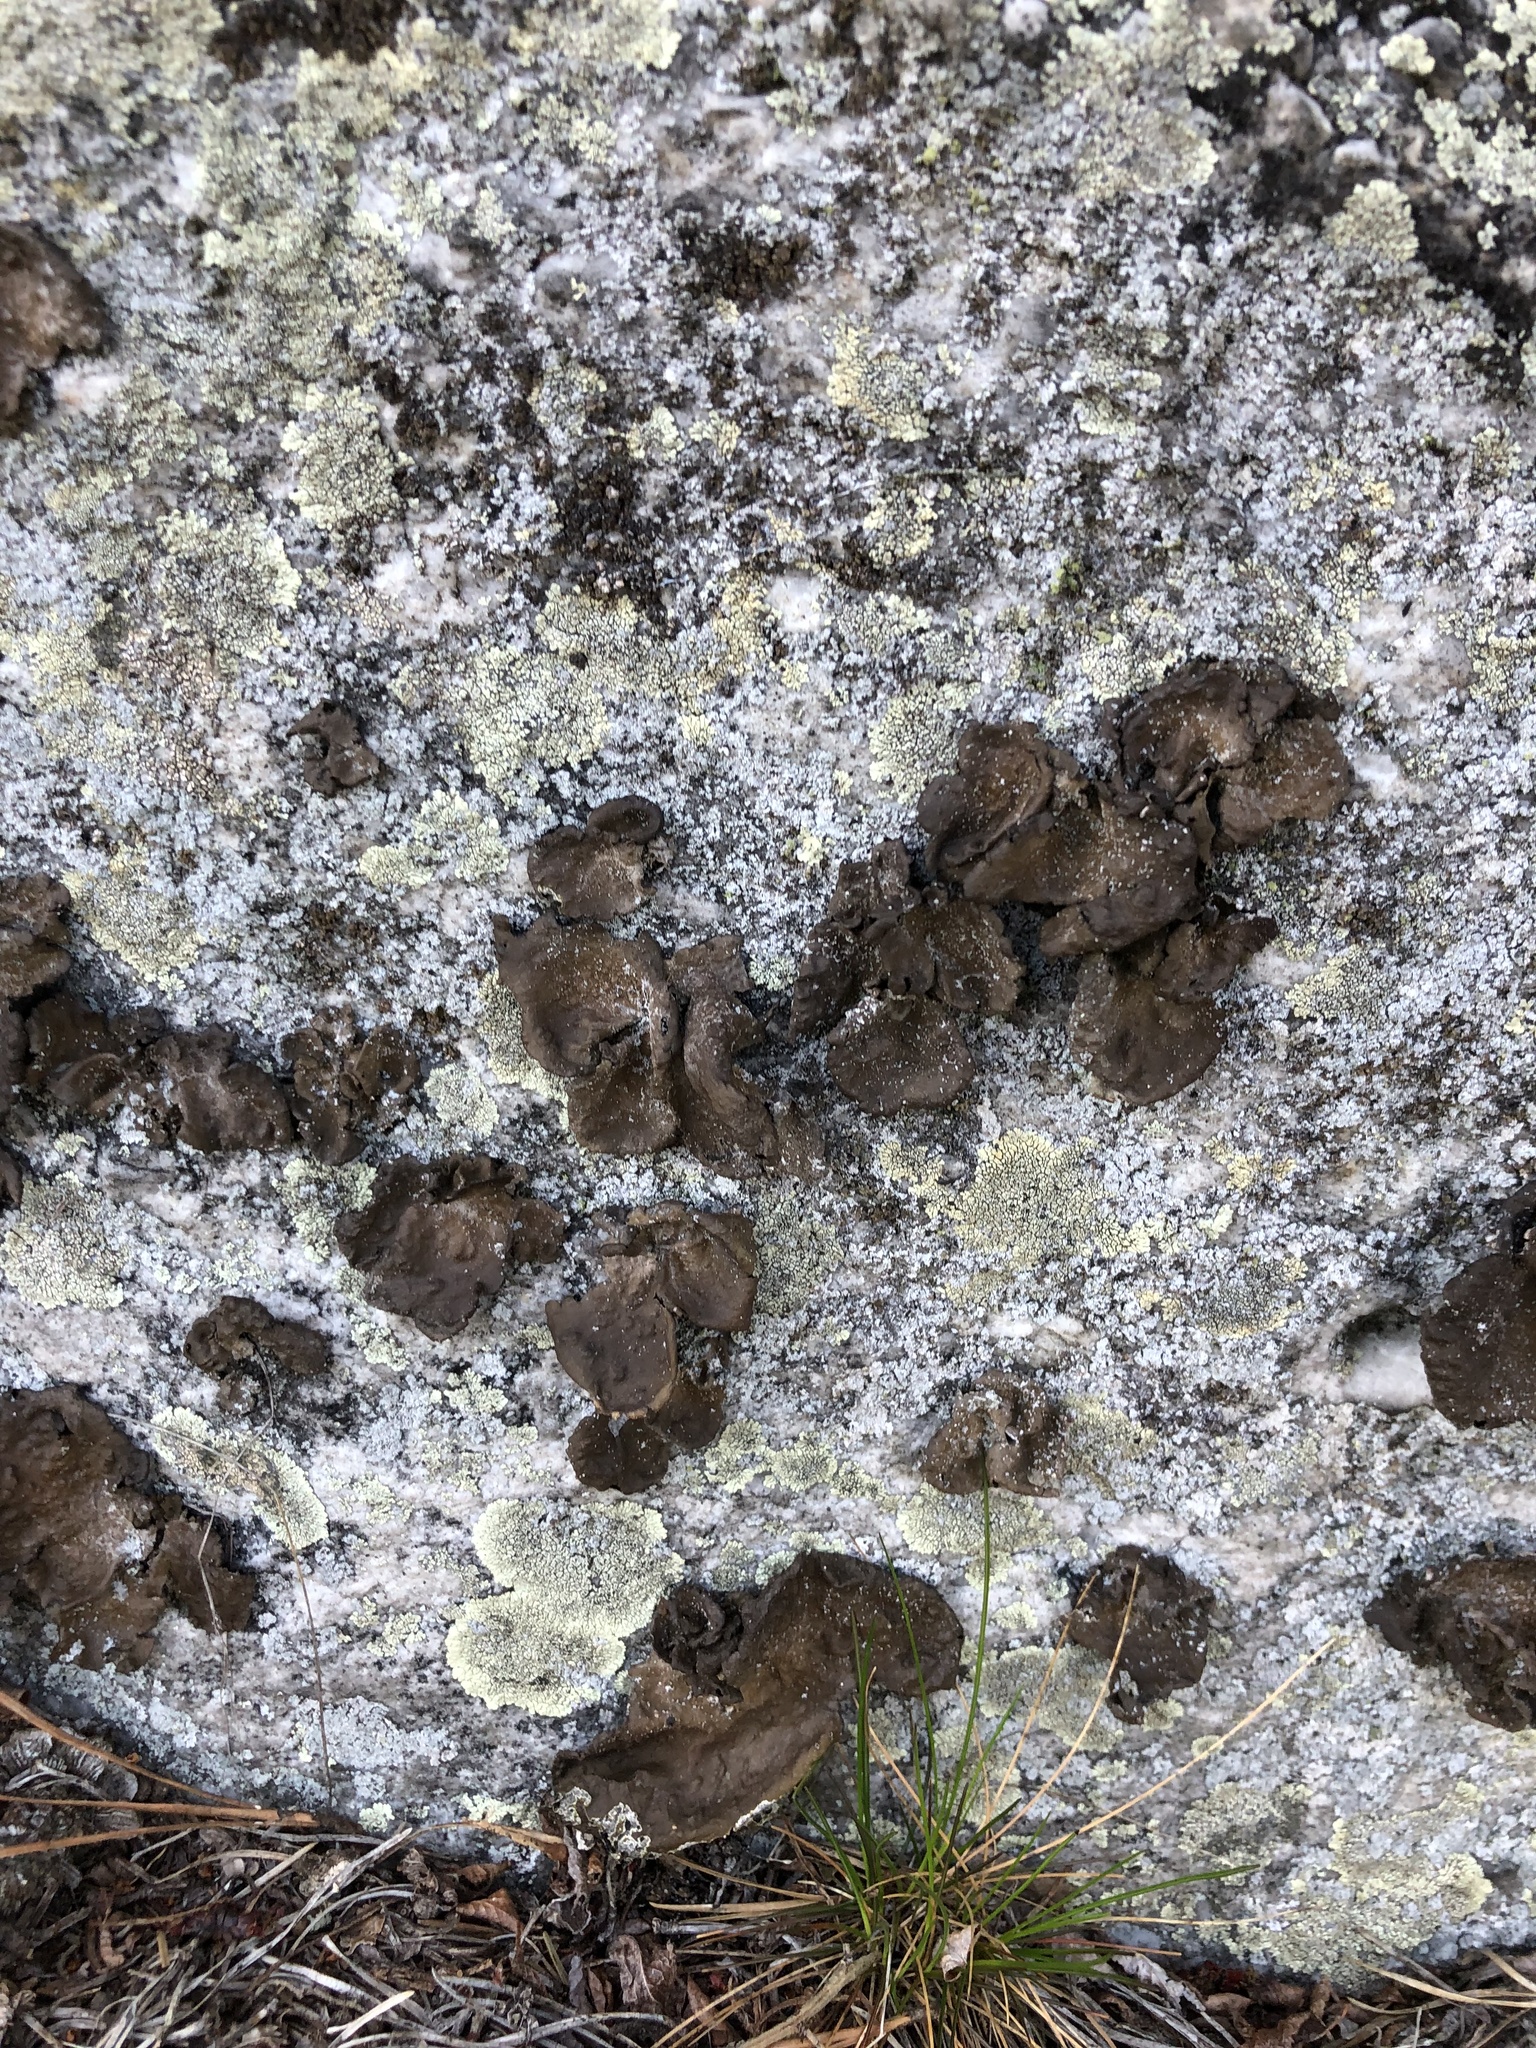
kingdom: Fungi
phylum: Ascomycota
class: Lecanoromycetes
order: Umbilicariales
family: Umbilicariaceae
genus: Lasallia
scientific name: Lasallia pensylvanica
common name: Blackened toadskin lichen
